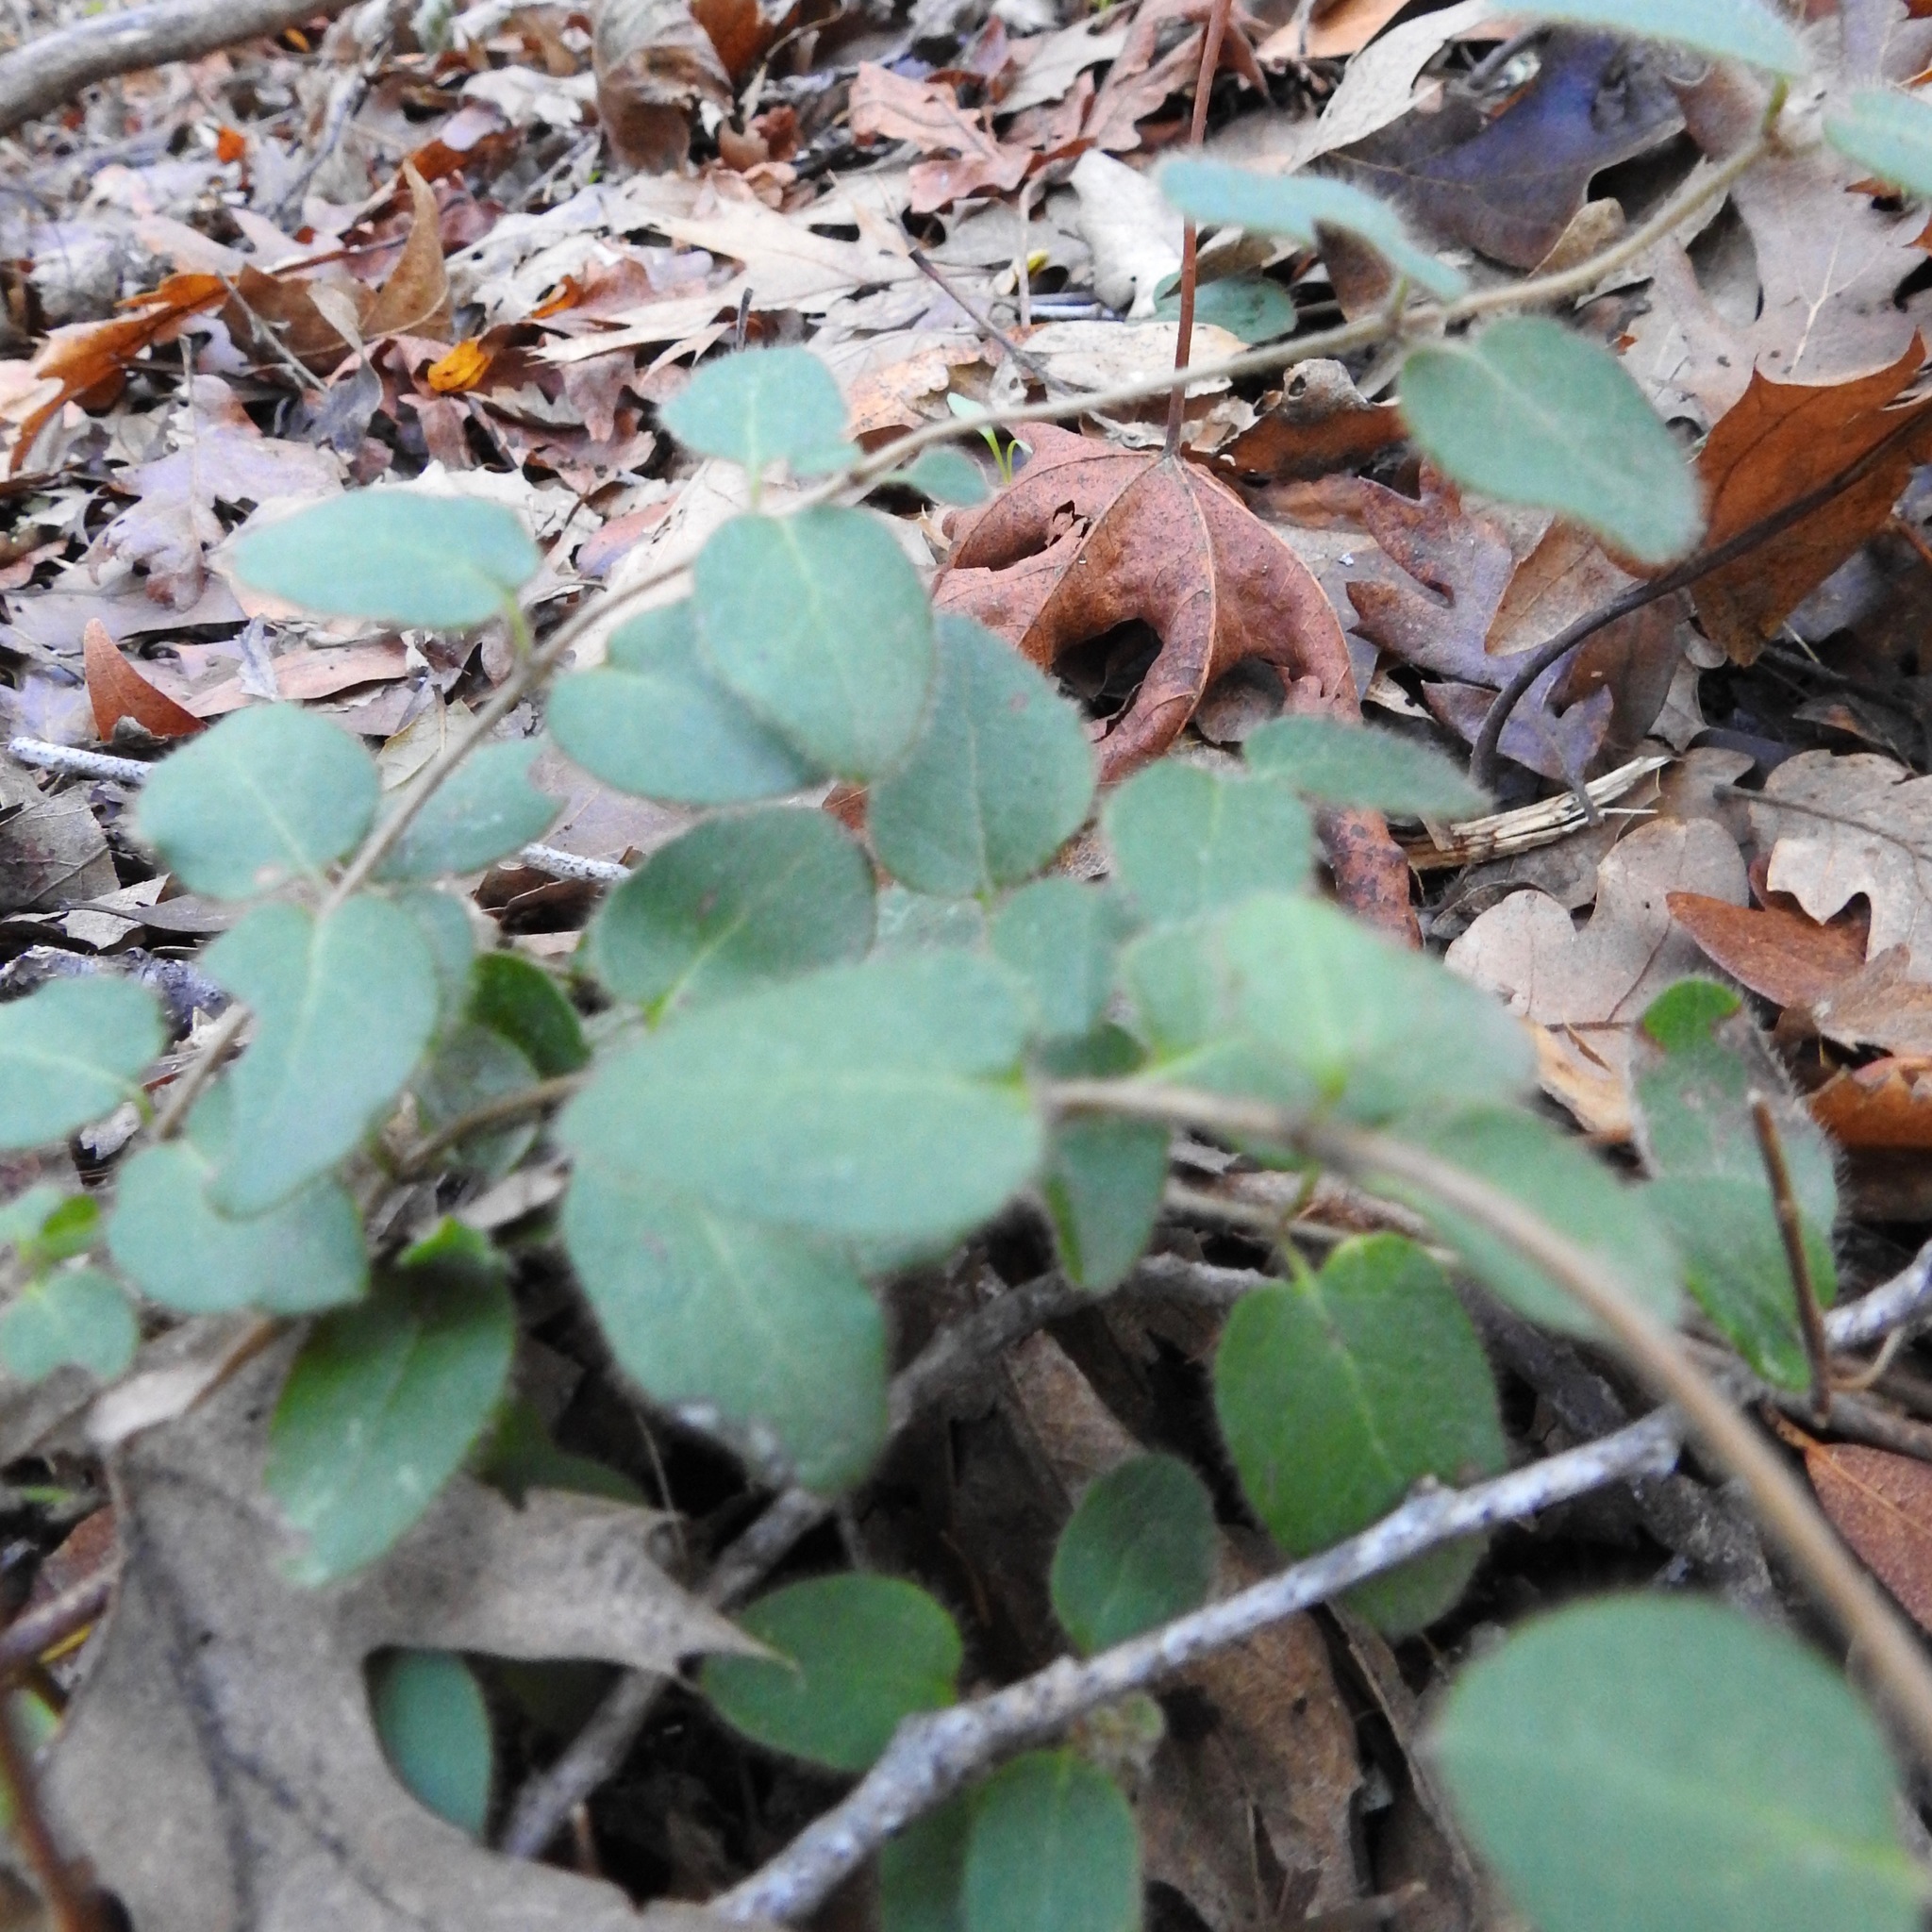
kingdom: Plantae
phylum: Tracheophyta
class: Magnoliopsida
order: Dipsacales
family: Caprifoliaceae
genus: Lonicera
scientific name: Lonicera hispidula
